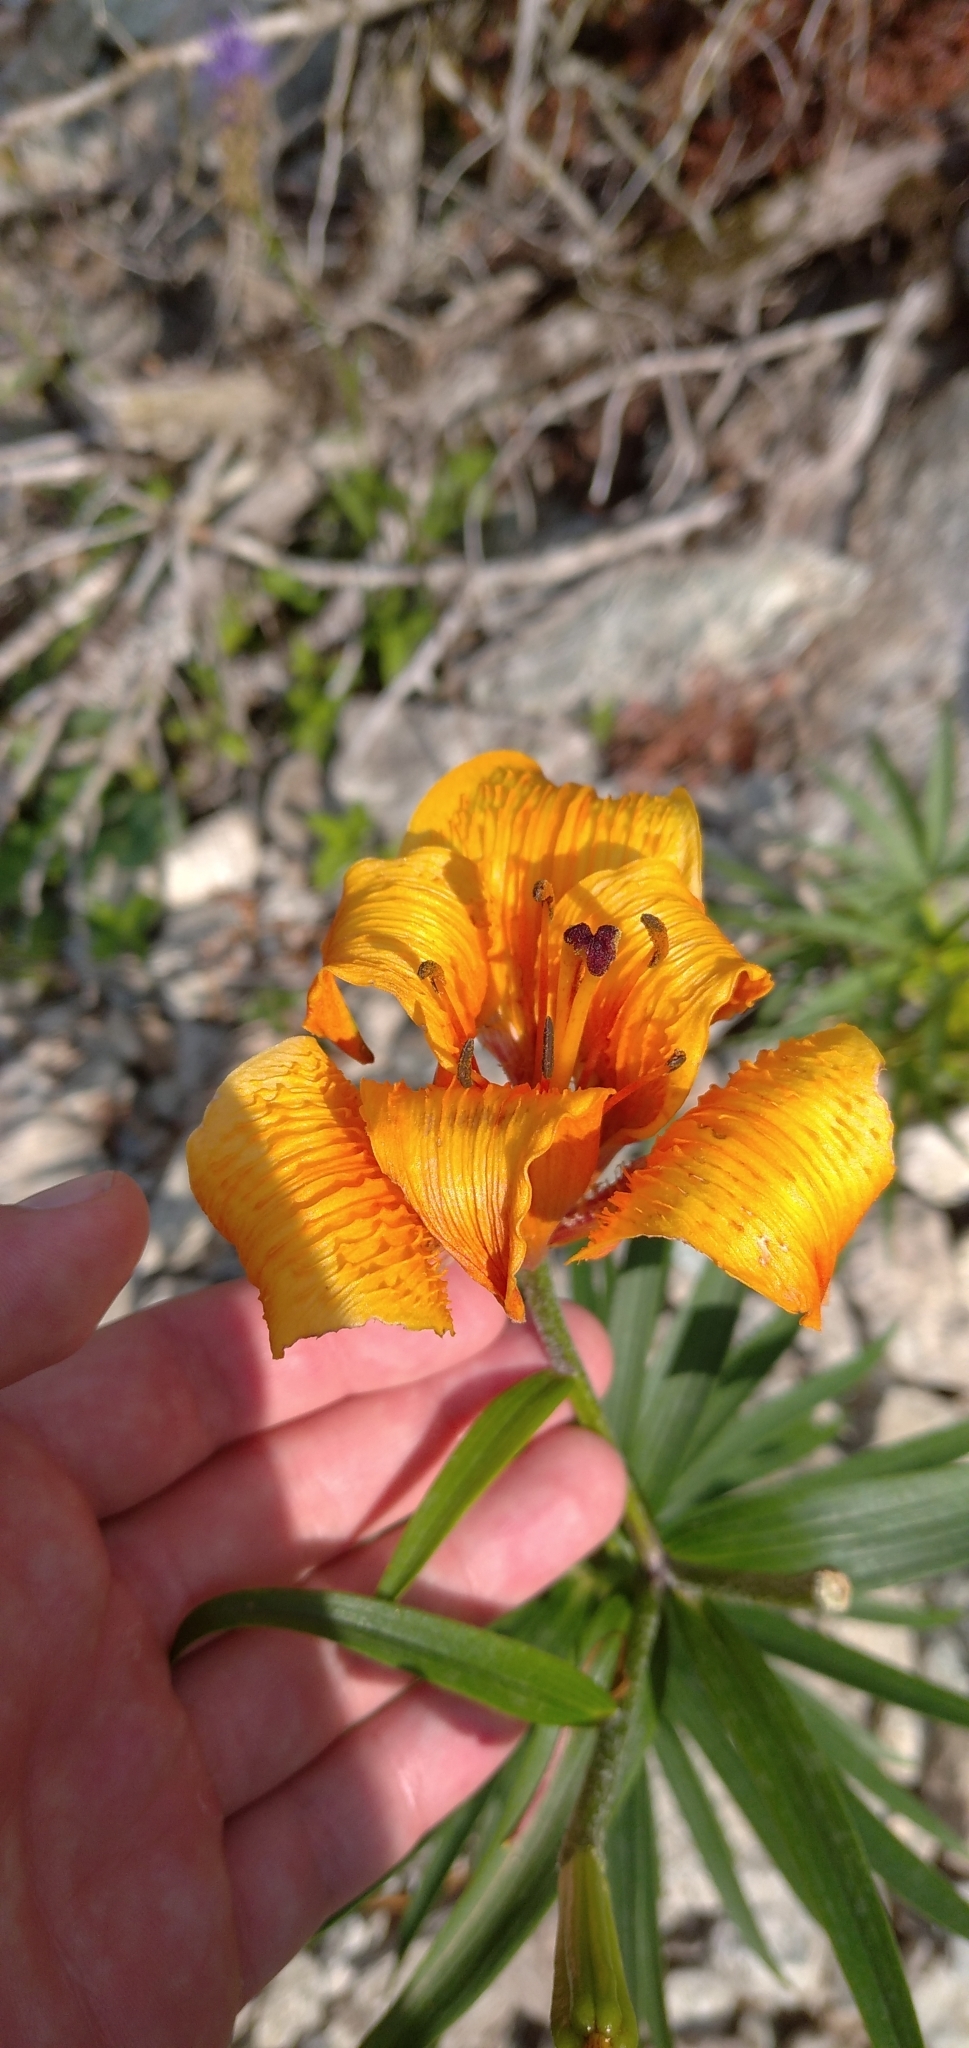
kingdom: Plantae
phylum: Tracheophyta
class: Liliopsida
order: Liliales
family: Liliaceae
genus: Lilium
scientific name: Lilium bulbiferum
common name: Orange lily
